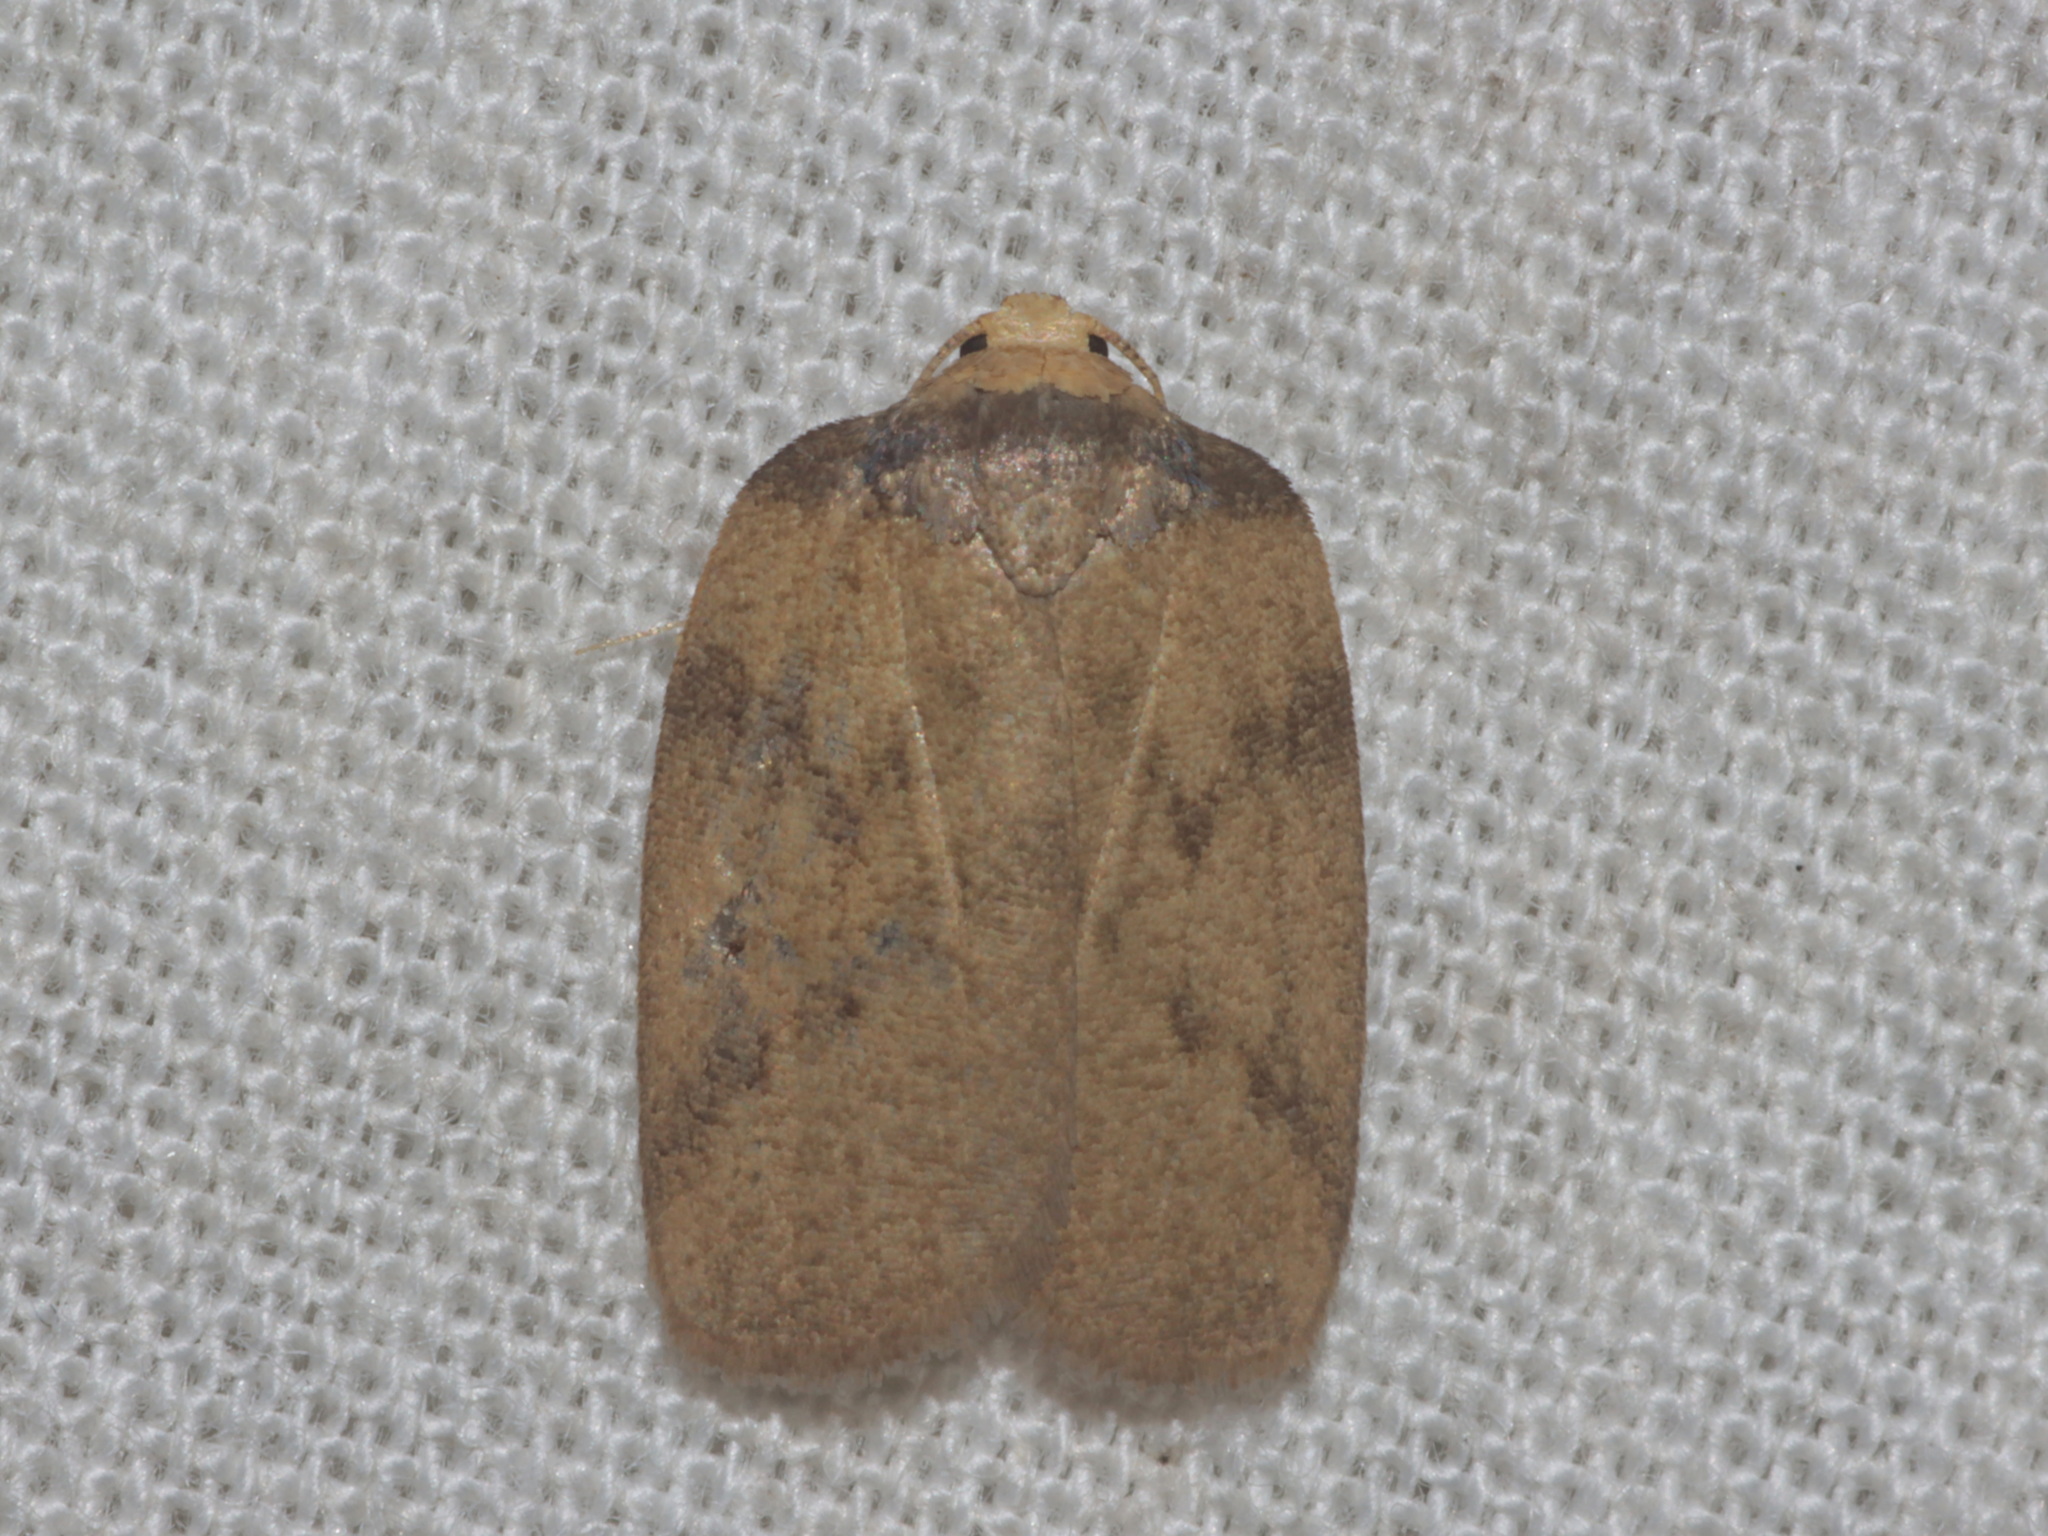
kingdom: Animalia
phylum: Arthropoda
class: Insecta
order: Lepidoptera
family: Erebidae
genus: Neoeugoa
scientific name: Neoeugoa humerana
